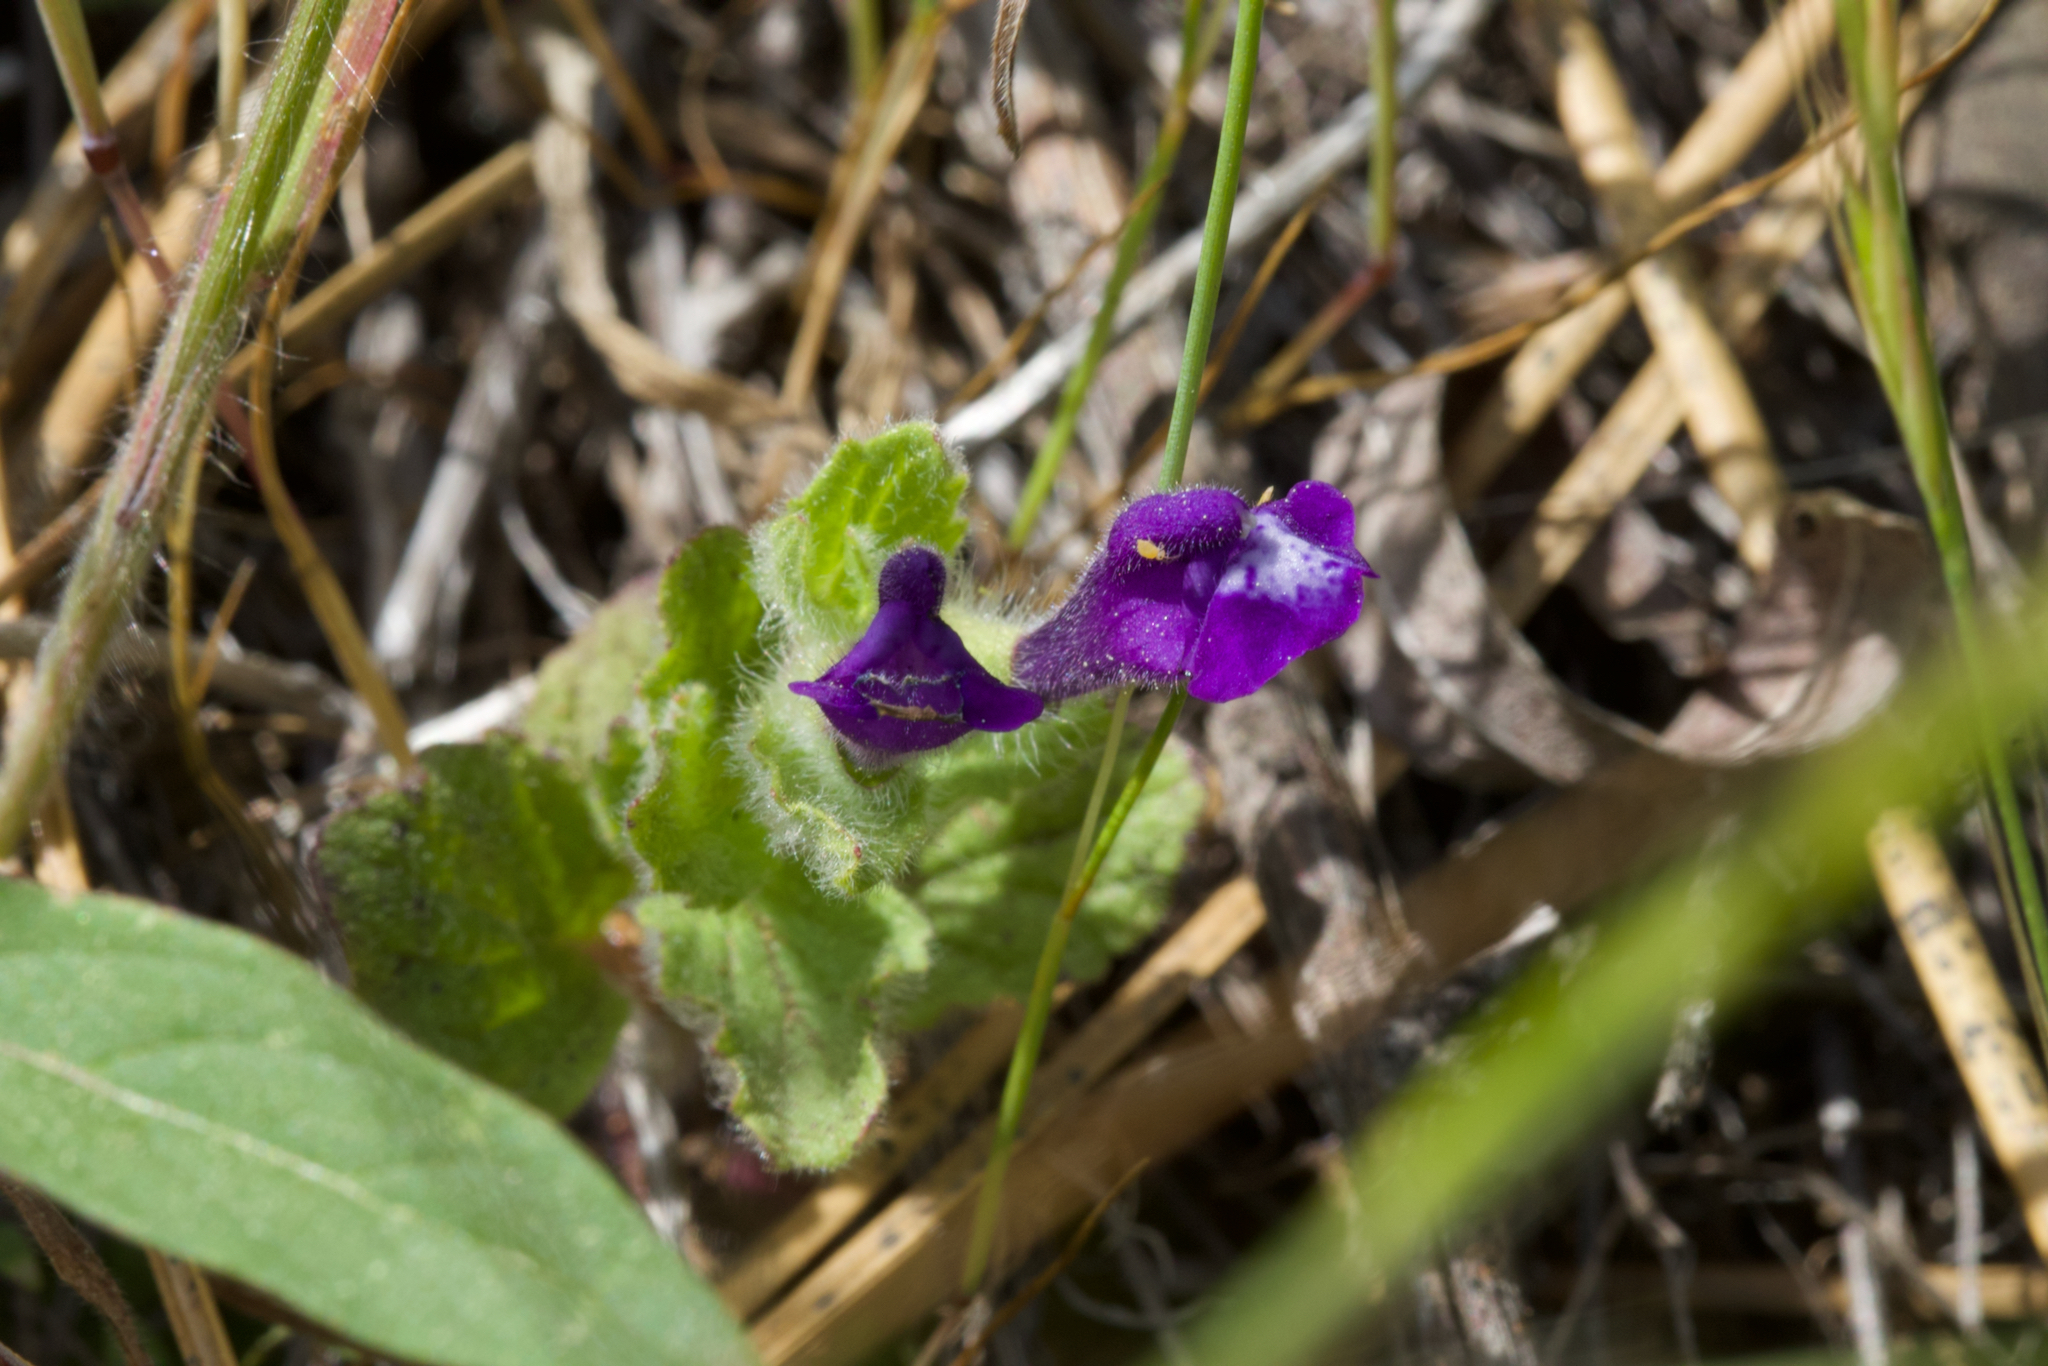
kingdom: Plantae
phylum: Tracheophyta
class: Magnoliopsida
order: Lamiales
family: Lamiaceae
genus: Scutellaria
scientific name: Scutellaria tuberosa
